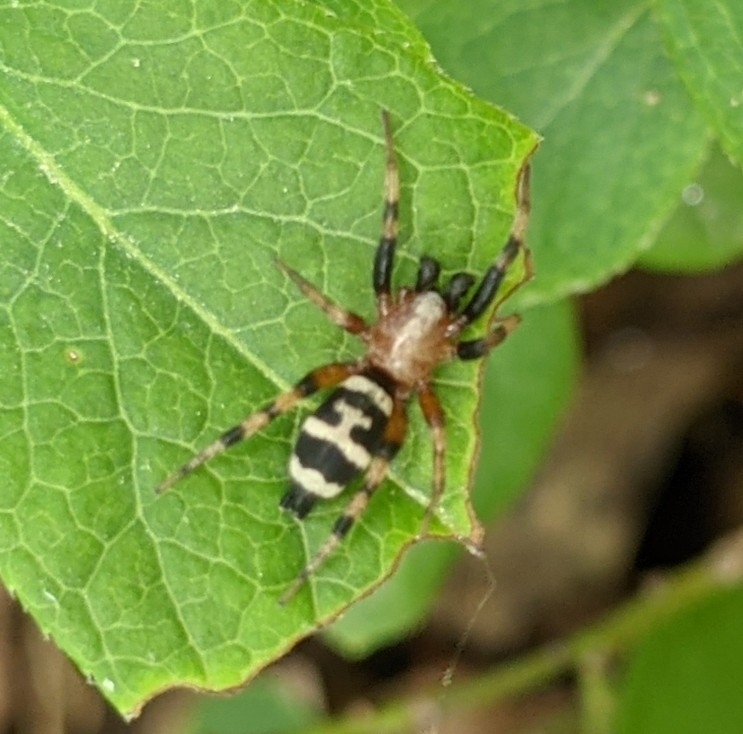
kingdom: Animalia
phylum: Arthropoda
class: Arachnida
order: Araneae
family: Gnaphosidae
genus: Sergiolus
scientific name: Sergiolus capulatus
